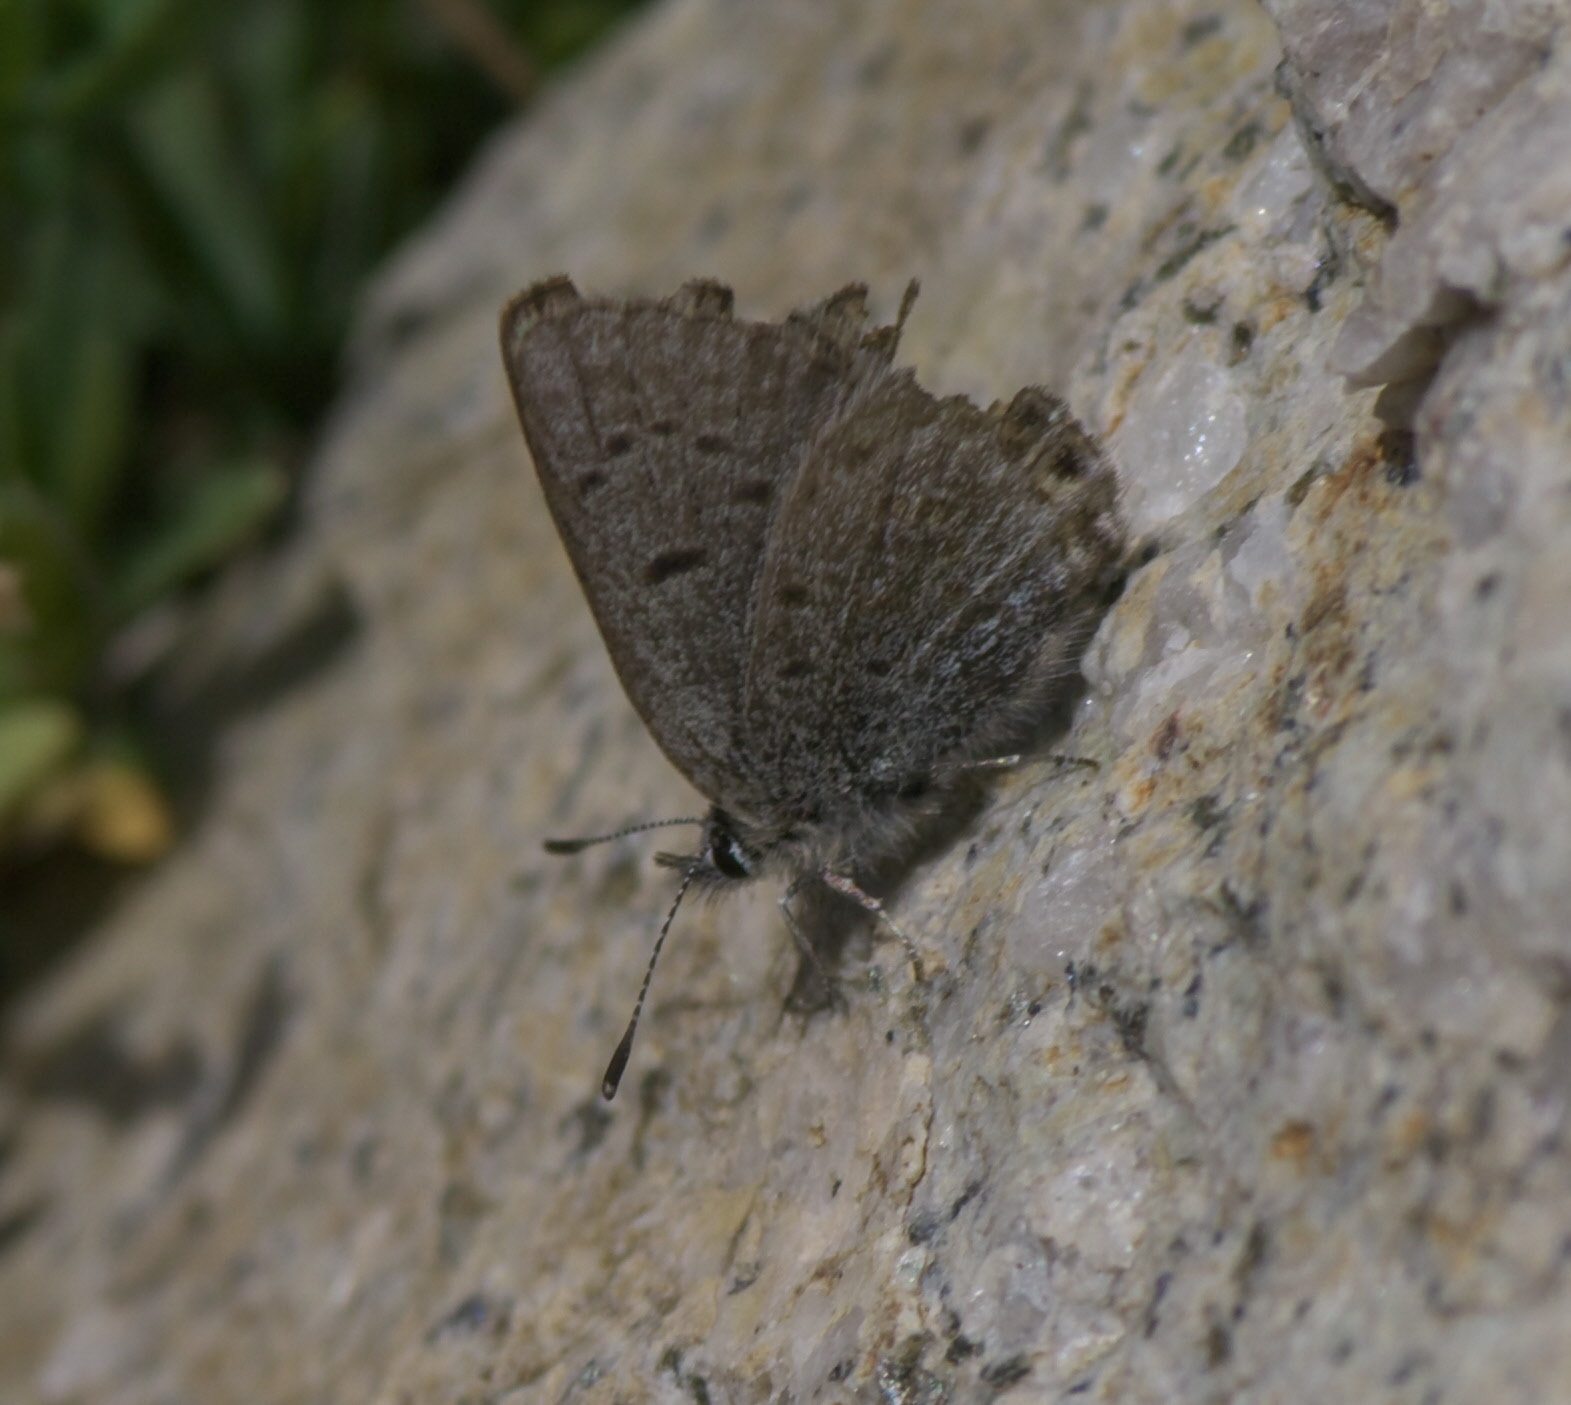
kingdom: Animalia
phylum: Arthropoda
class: Insecta
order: Lepidoptera
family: Lycaenidae
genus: Icaricia
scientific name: Icaricia shasta
